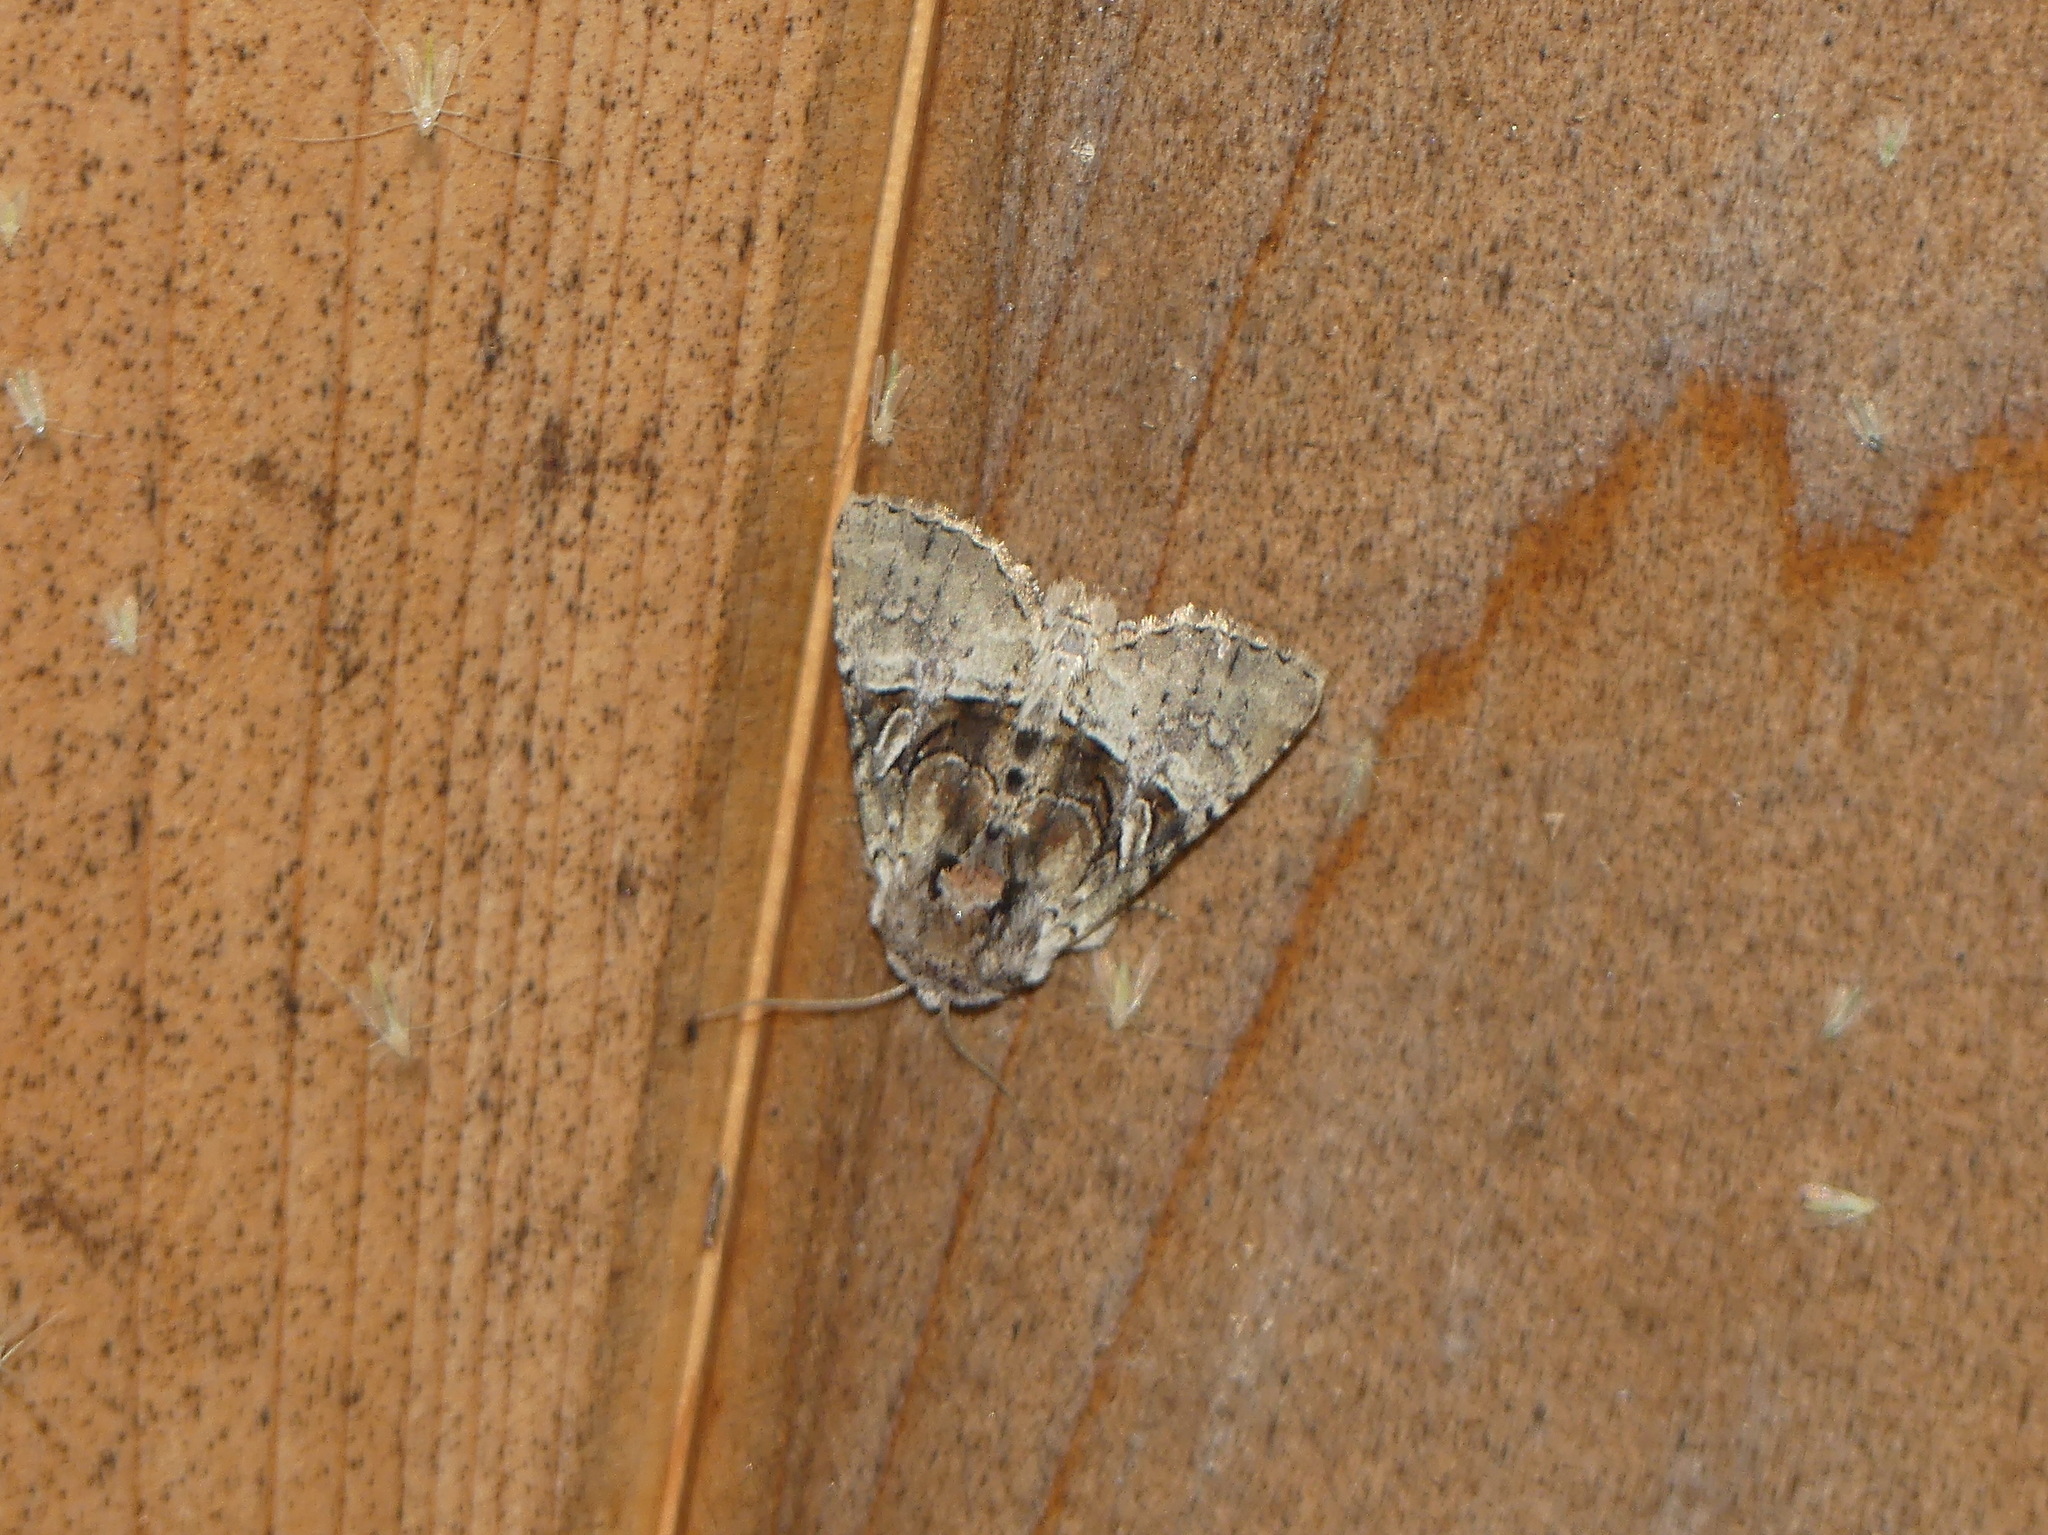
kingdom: Animalia
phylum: Arthropoda
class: Insecta
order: Lepidoptera
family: Noctuidae
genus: Meropleon
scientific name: Meropleon diversicolor
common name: Multicolored sedgeminer moth
